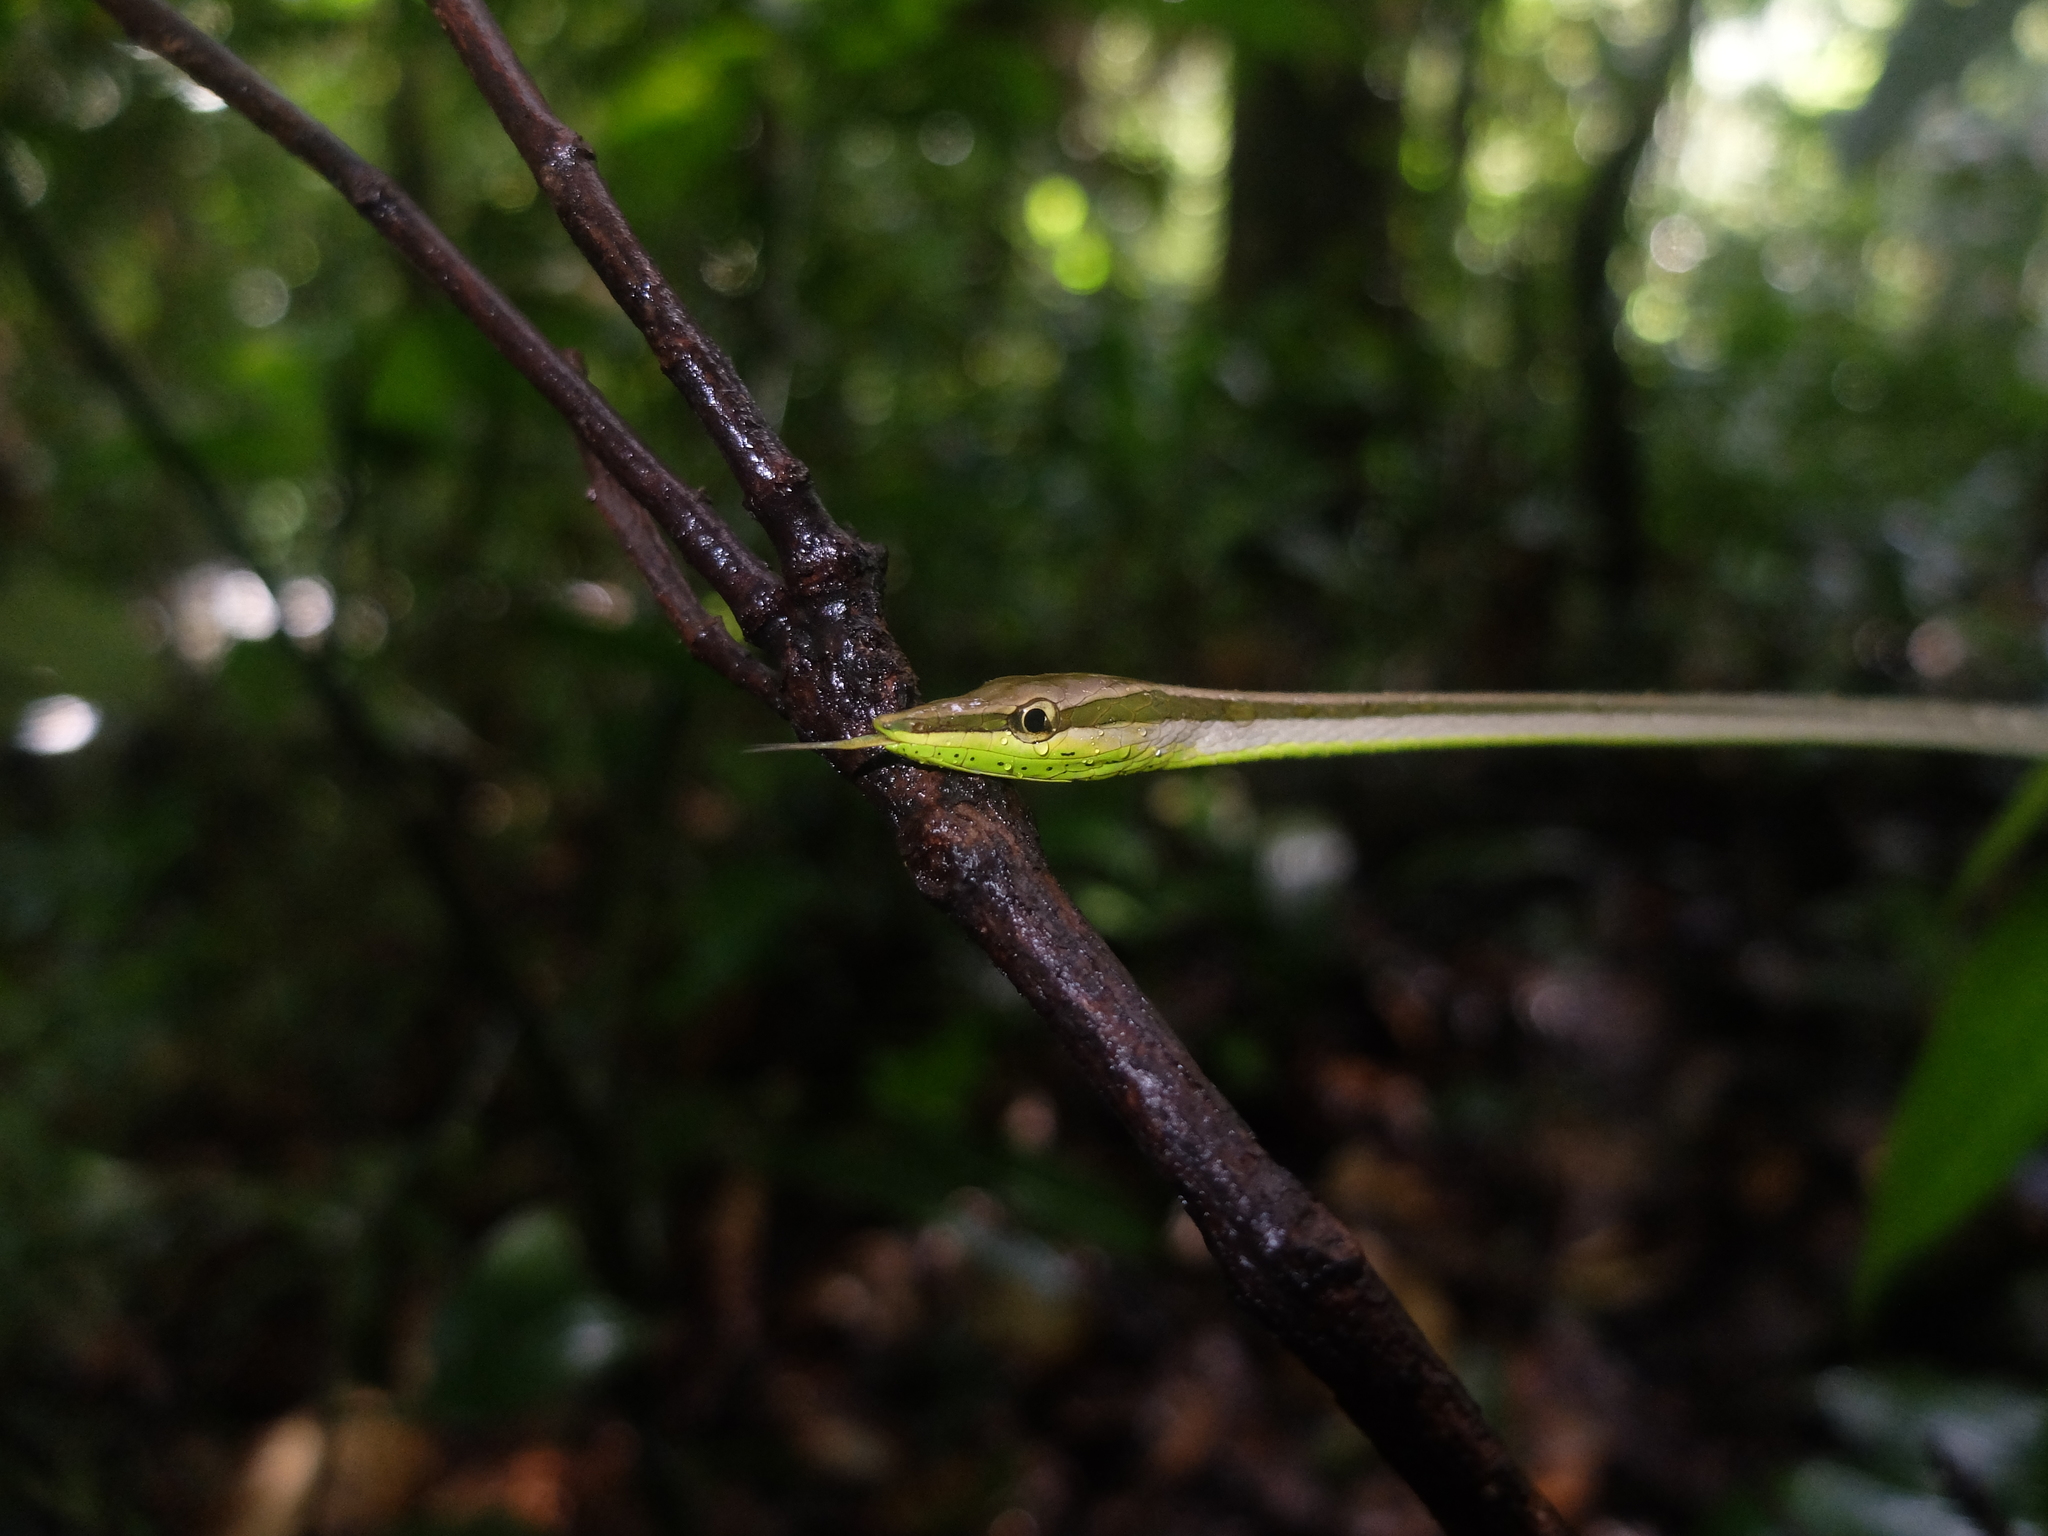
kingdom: Animalia
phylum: Chordata
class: Squamata
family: Colubridae
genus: Xenoxybelis
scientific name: Xenoxybelis argenteus
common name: Striped sharpnose snake
